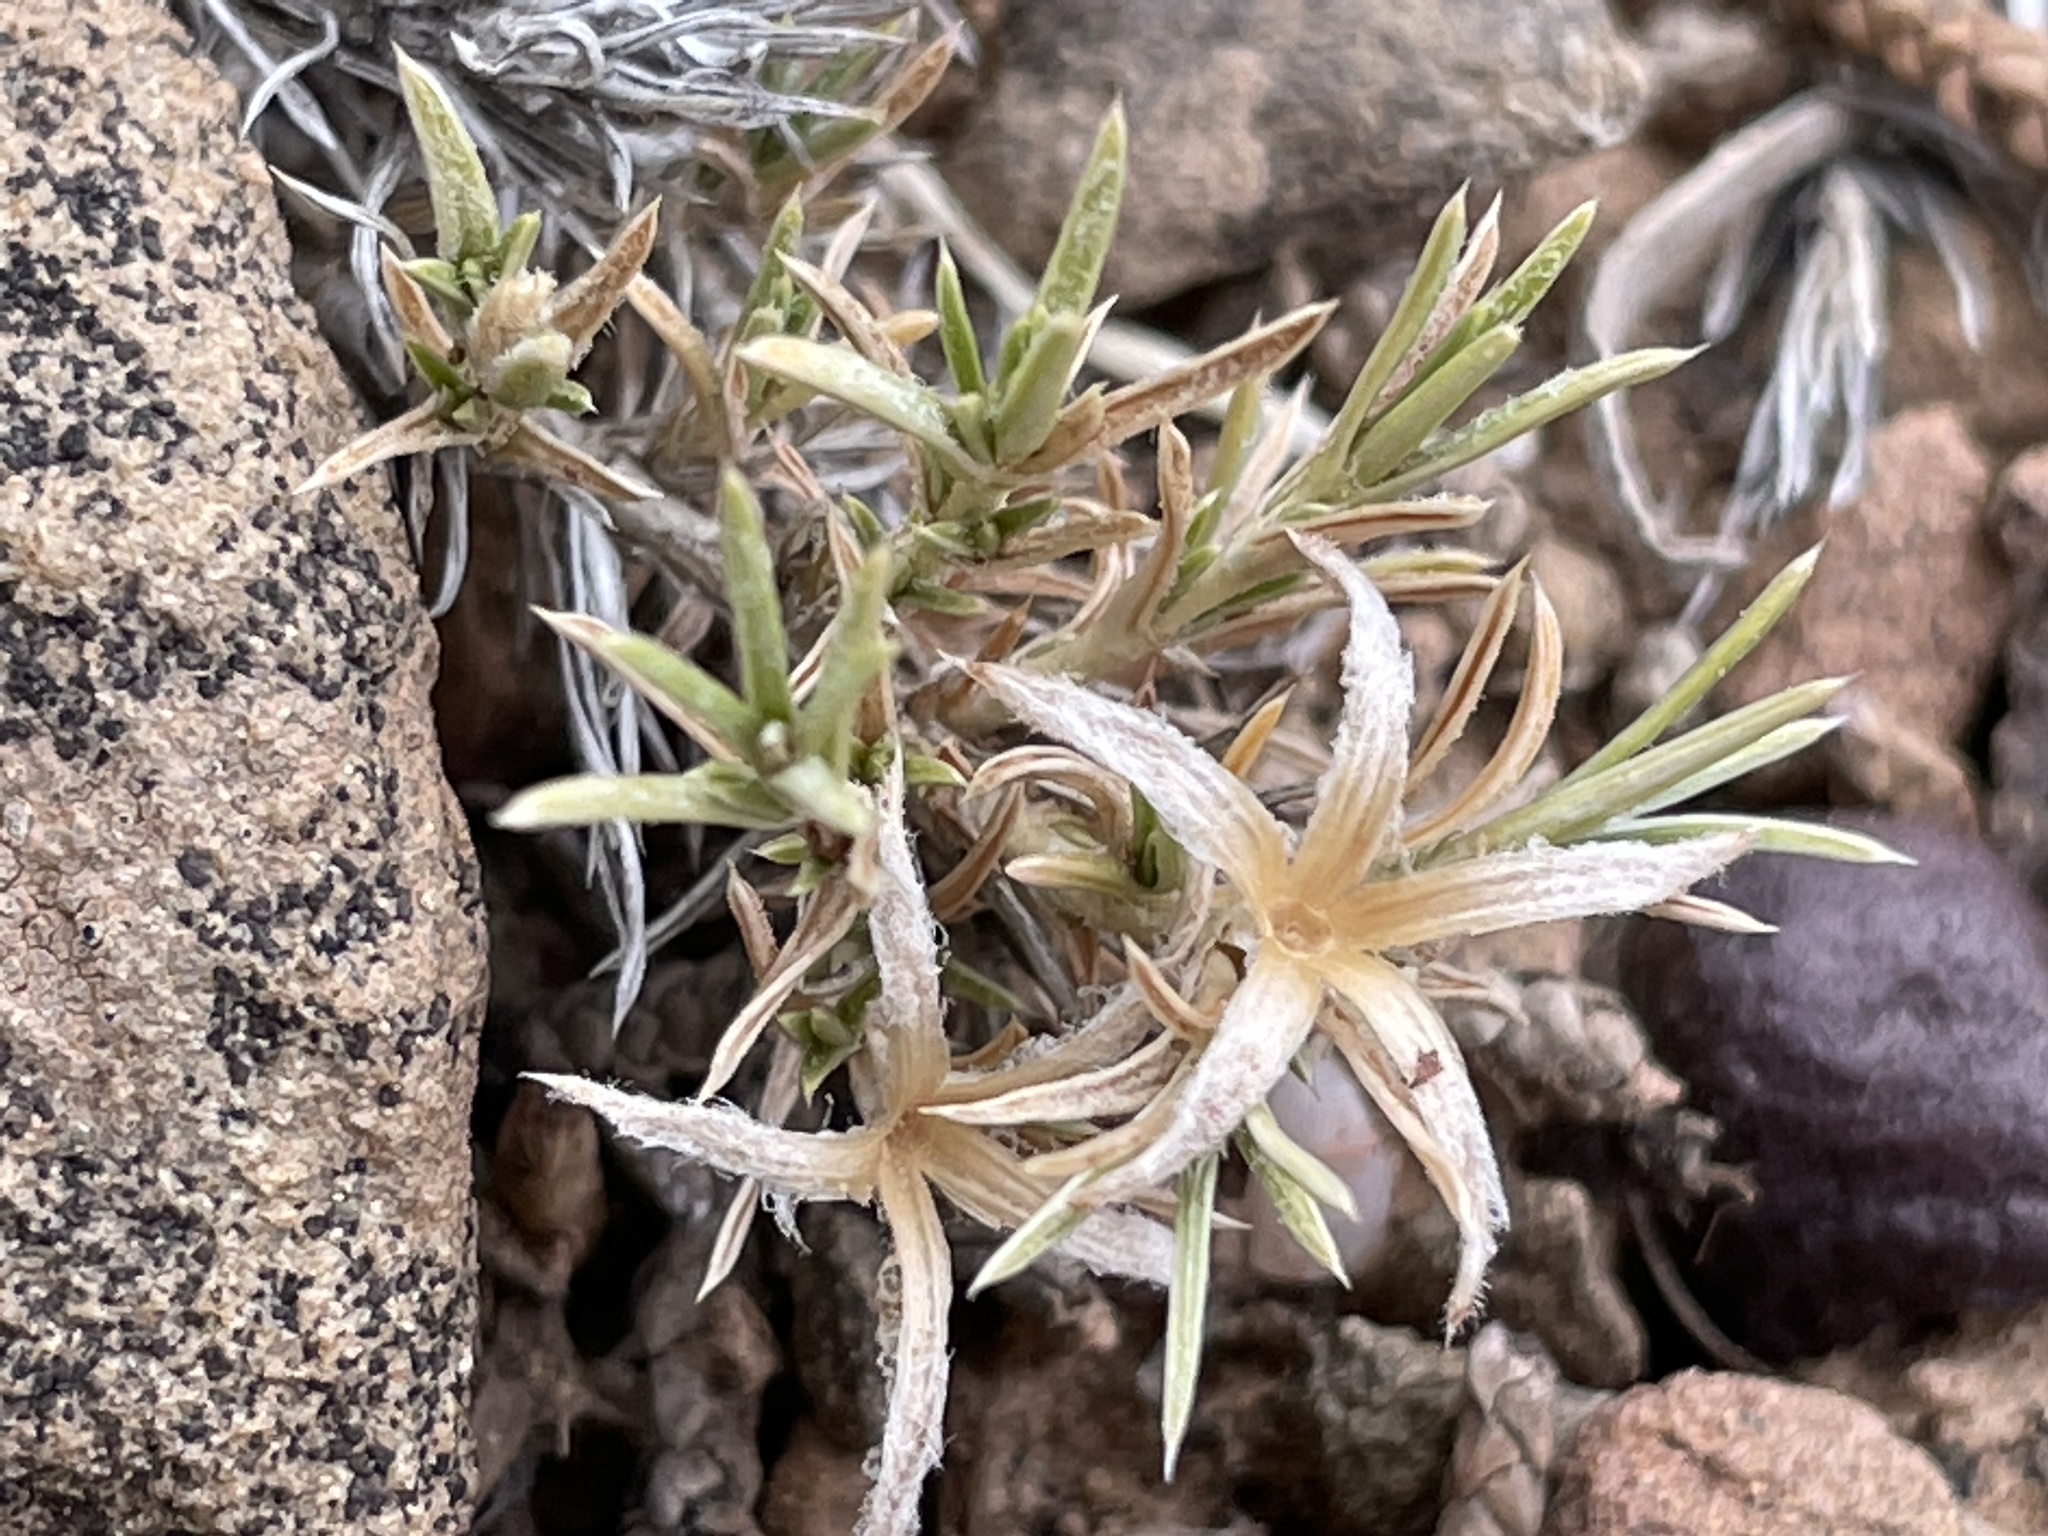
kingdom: Plantae
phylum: Tracheophyta
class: Magnoliopsida
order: Ericales
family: Polemoniaceae
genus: Phlox
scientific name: Phlox austromontana
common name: Desert phlox
